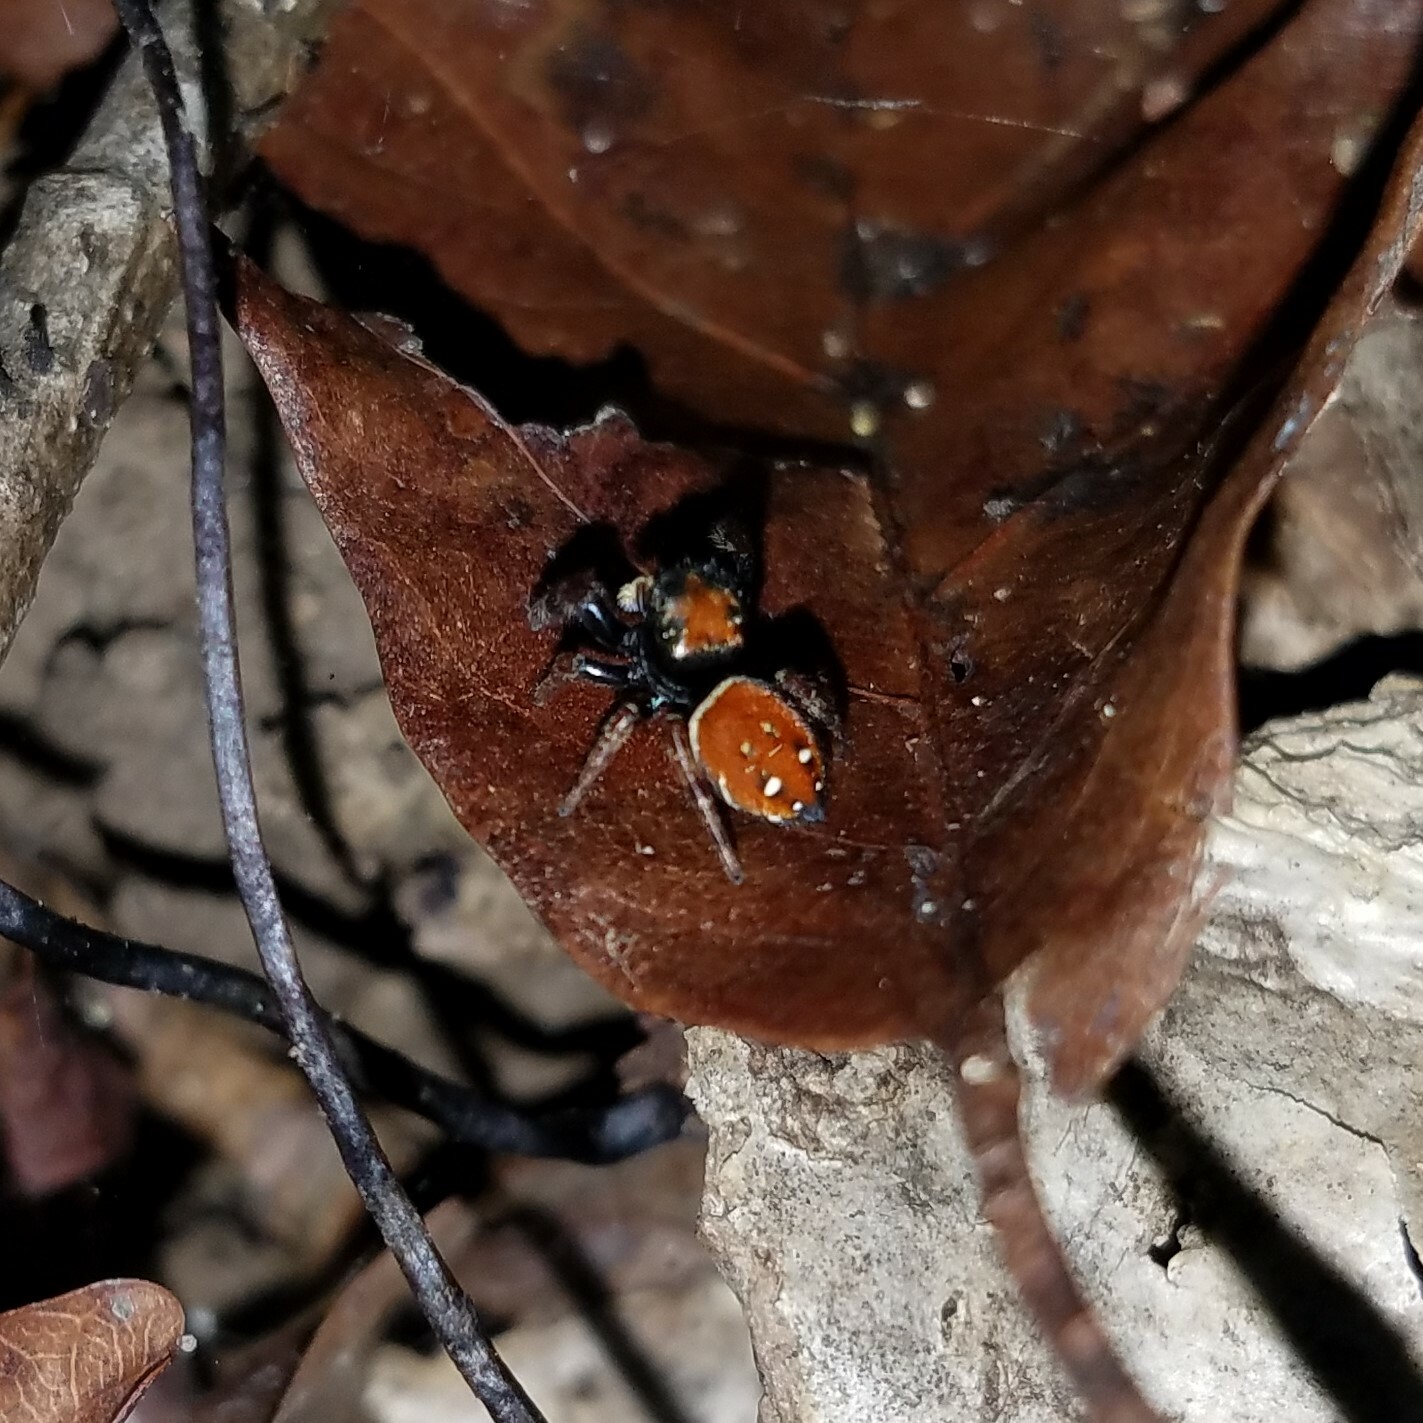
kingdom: Animalia
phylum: Arthropoda
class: Arachnida
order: Araneae
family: Salticidae
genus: Phidippus
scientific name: Phidippus whitmani
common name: Whitman's jumping spider
